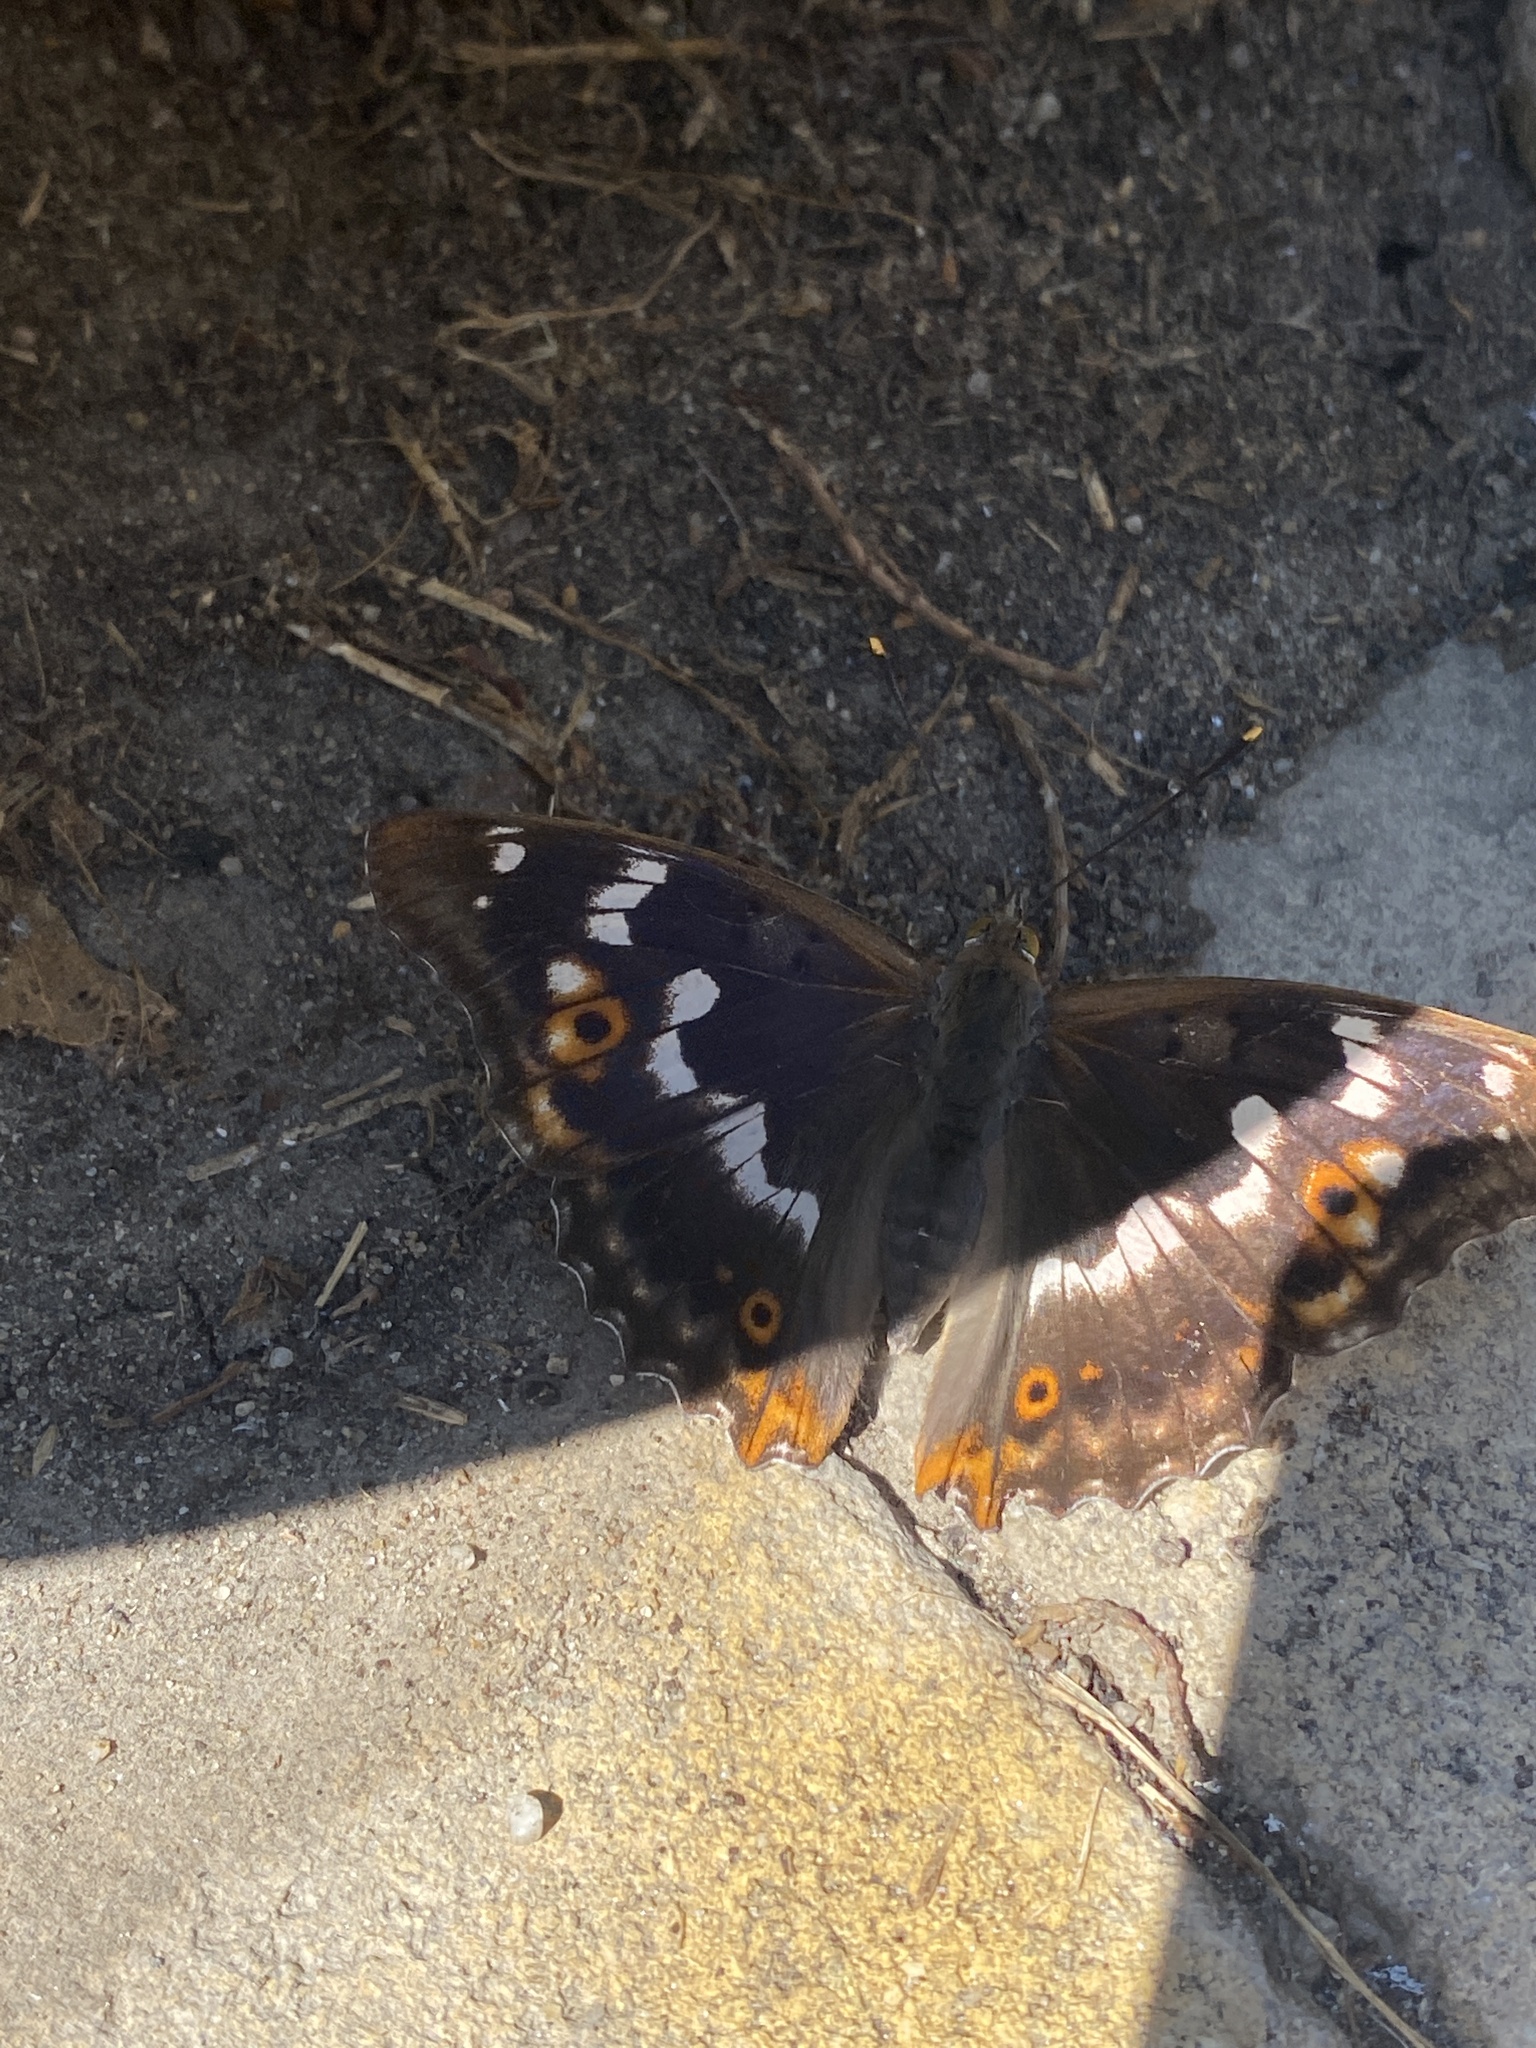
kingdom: Animalia
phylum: Arthropoda
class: Insecta
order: Lepidoptera
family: Nymphalidae
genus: Apatura
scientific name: Apatura ilia
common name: Lesser purple emperor
